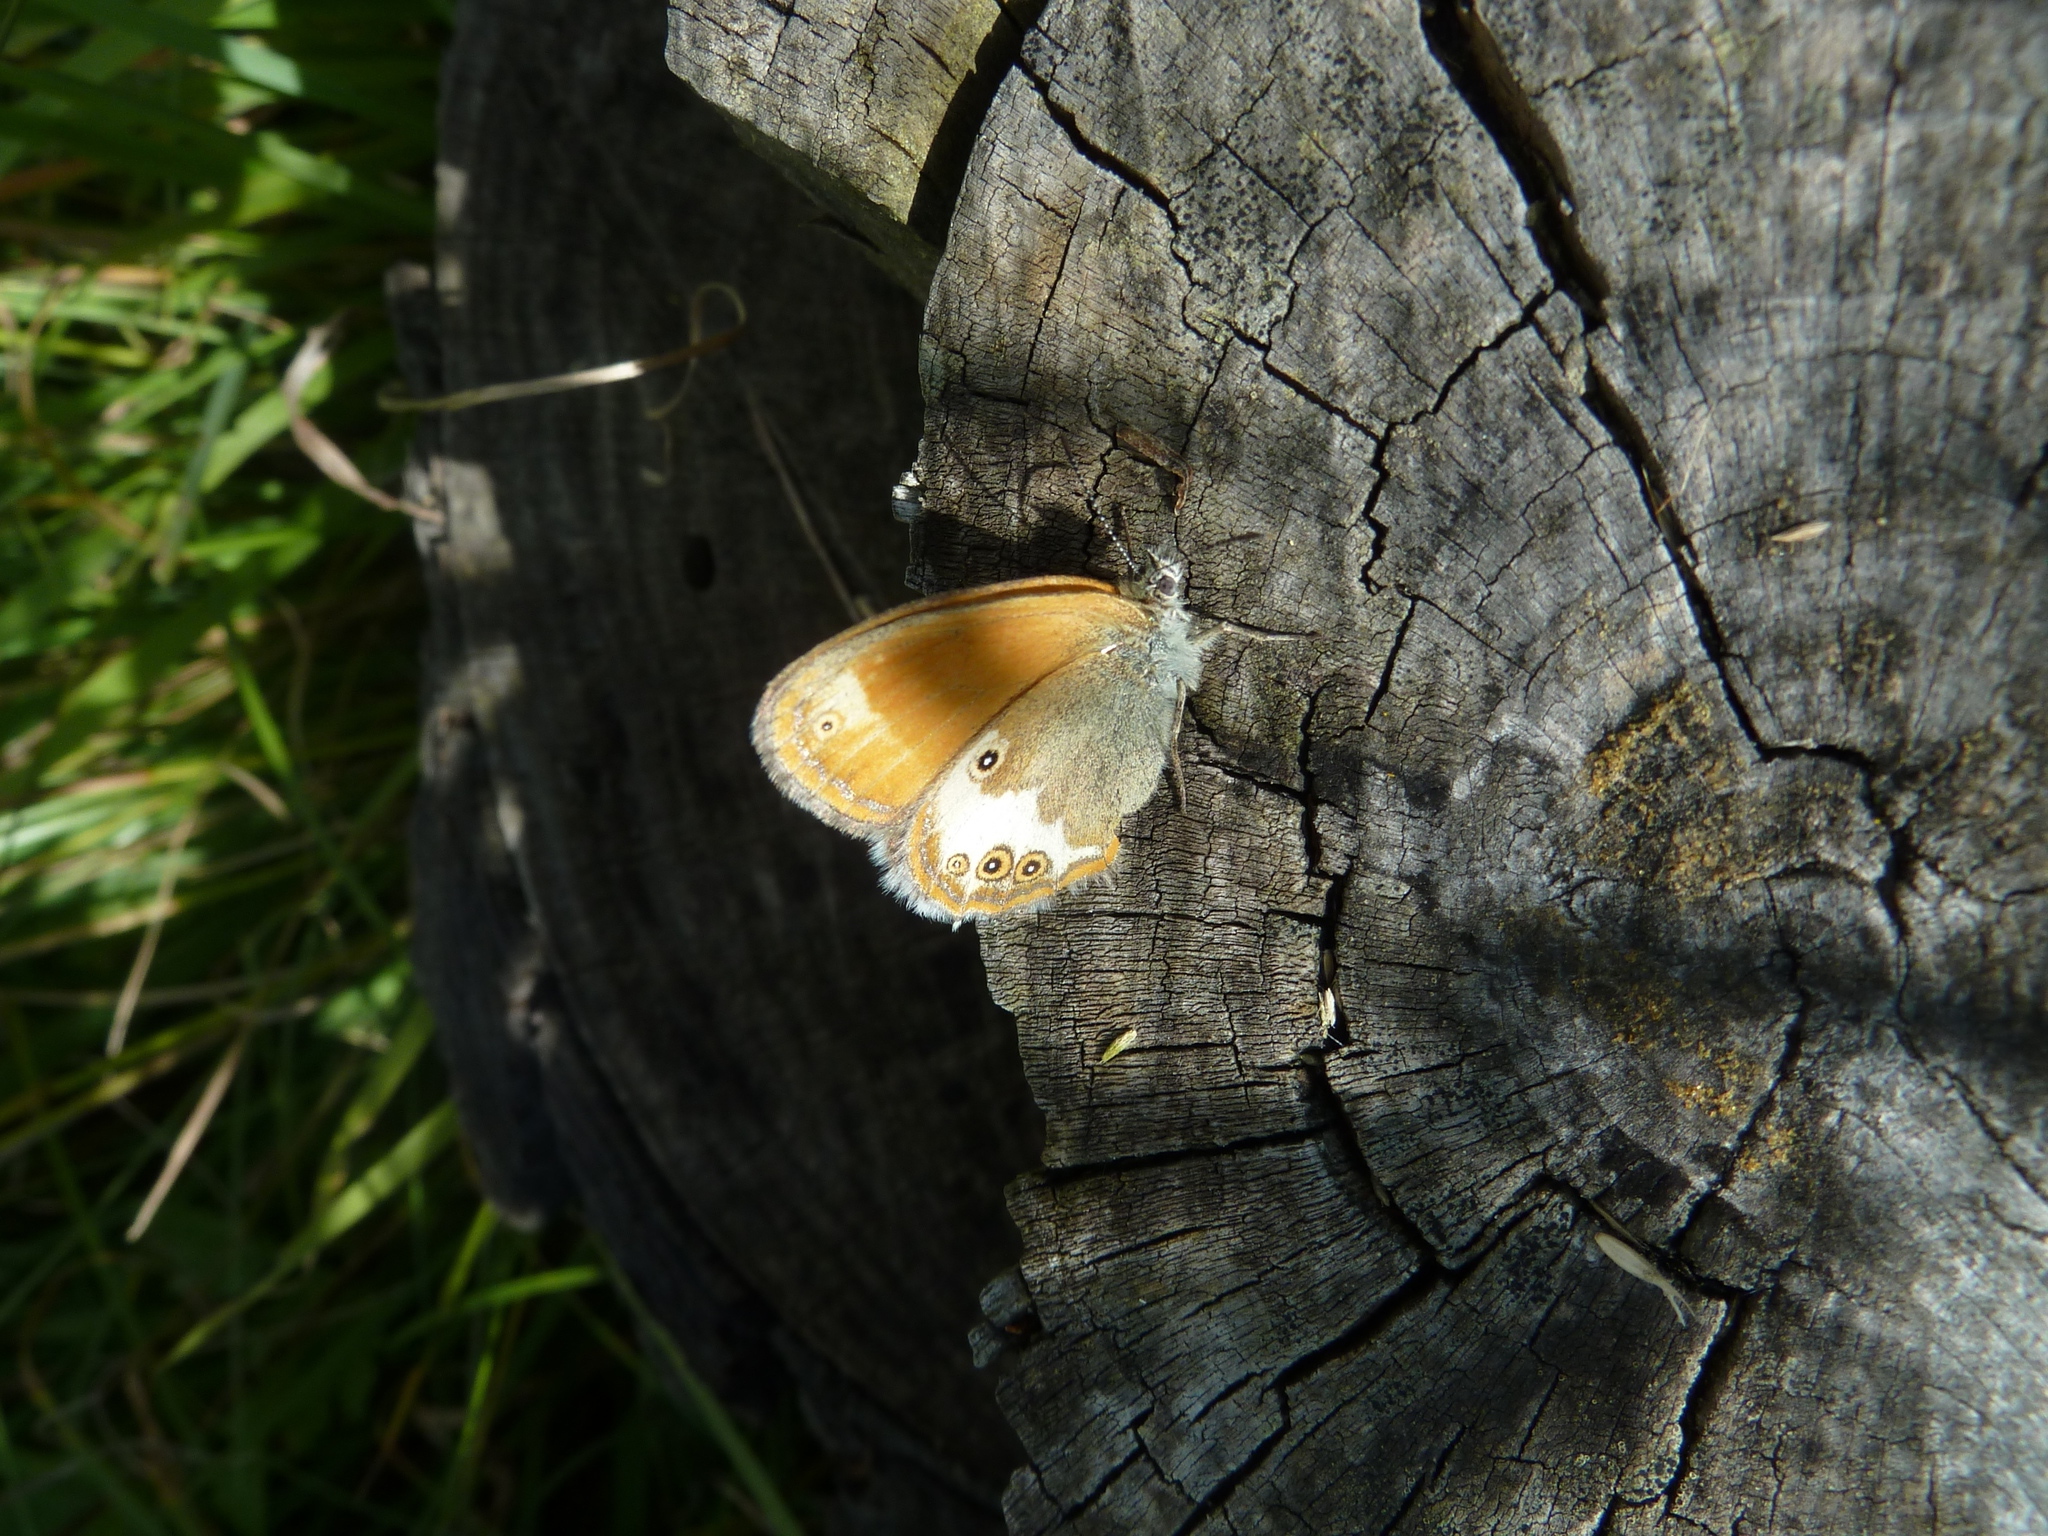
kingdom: Animalia
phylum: Arthropoda
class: Insecta
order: Lepidoptera
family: Nymphalidae
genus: Coenonympha
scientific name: Coenonympha arcania
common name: Pearly heath
